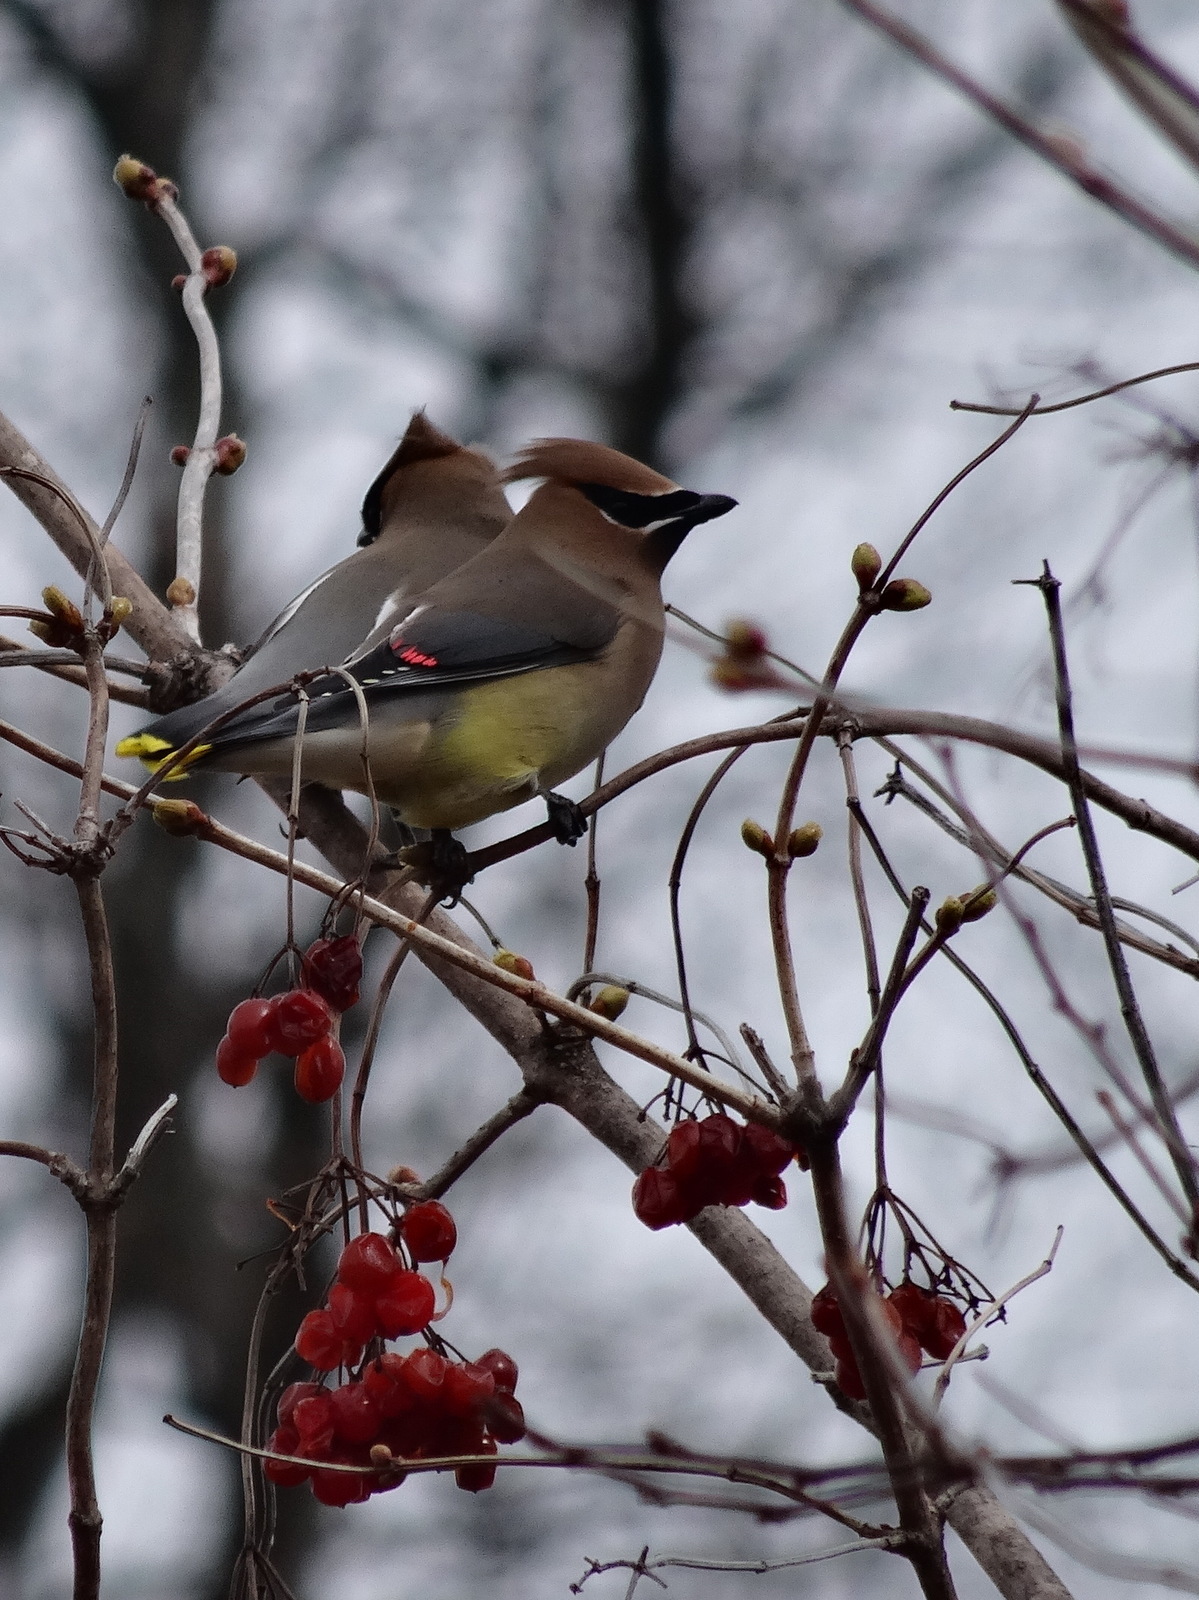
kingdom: Animalia
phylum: Chordata
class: Aves
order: Passeriformes
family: Bombycillidae
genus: Bombycilla
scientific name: Bombycilla cedrorum
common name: Cedar waxwing
